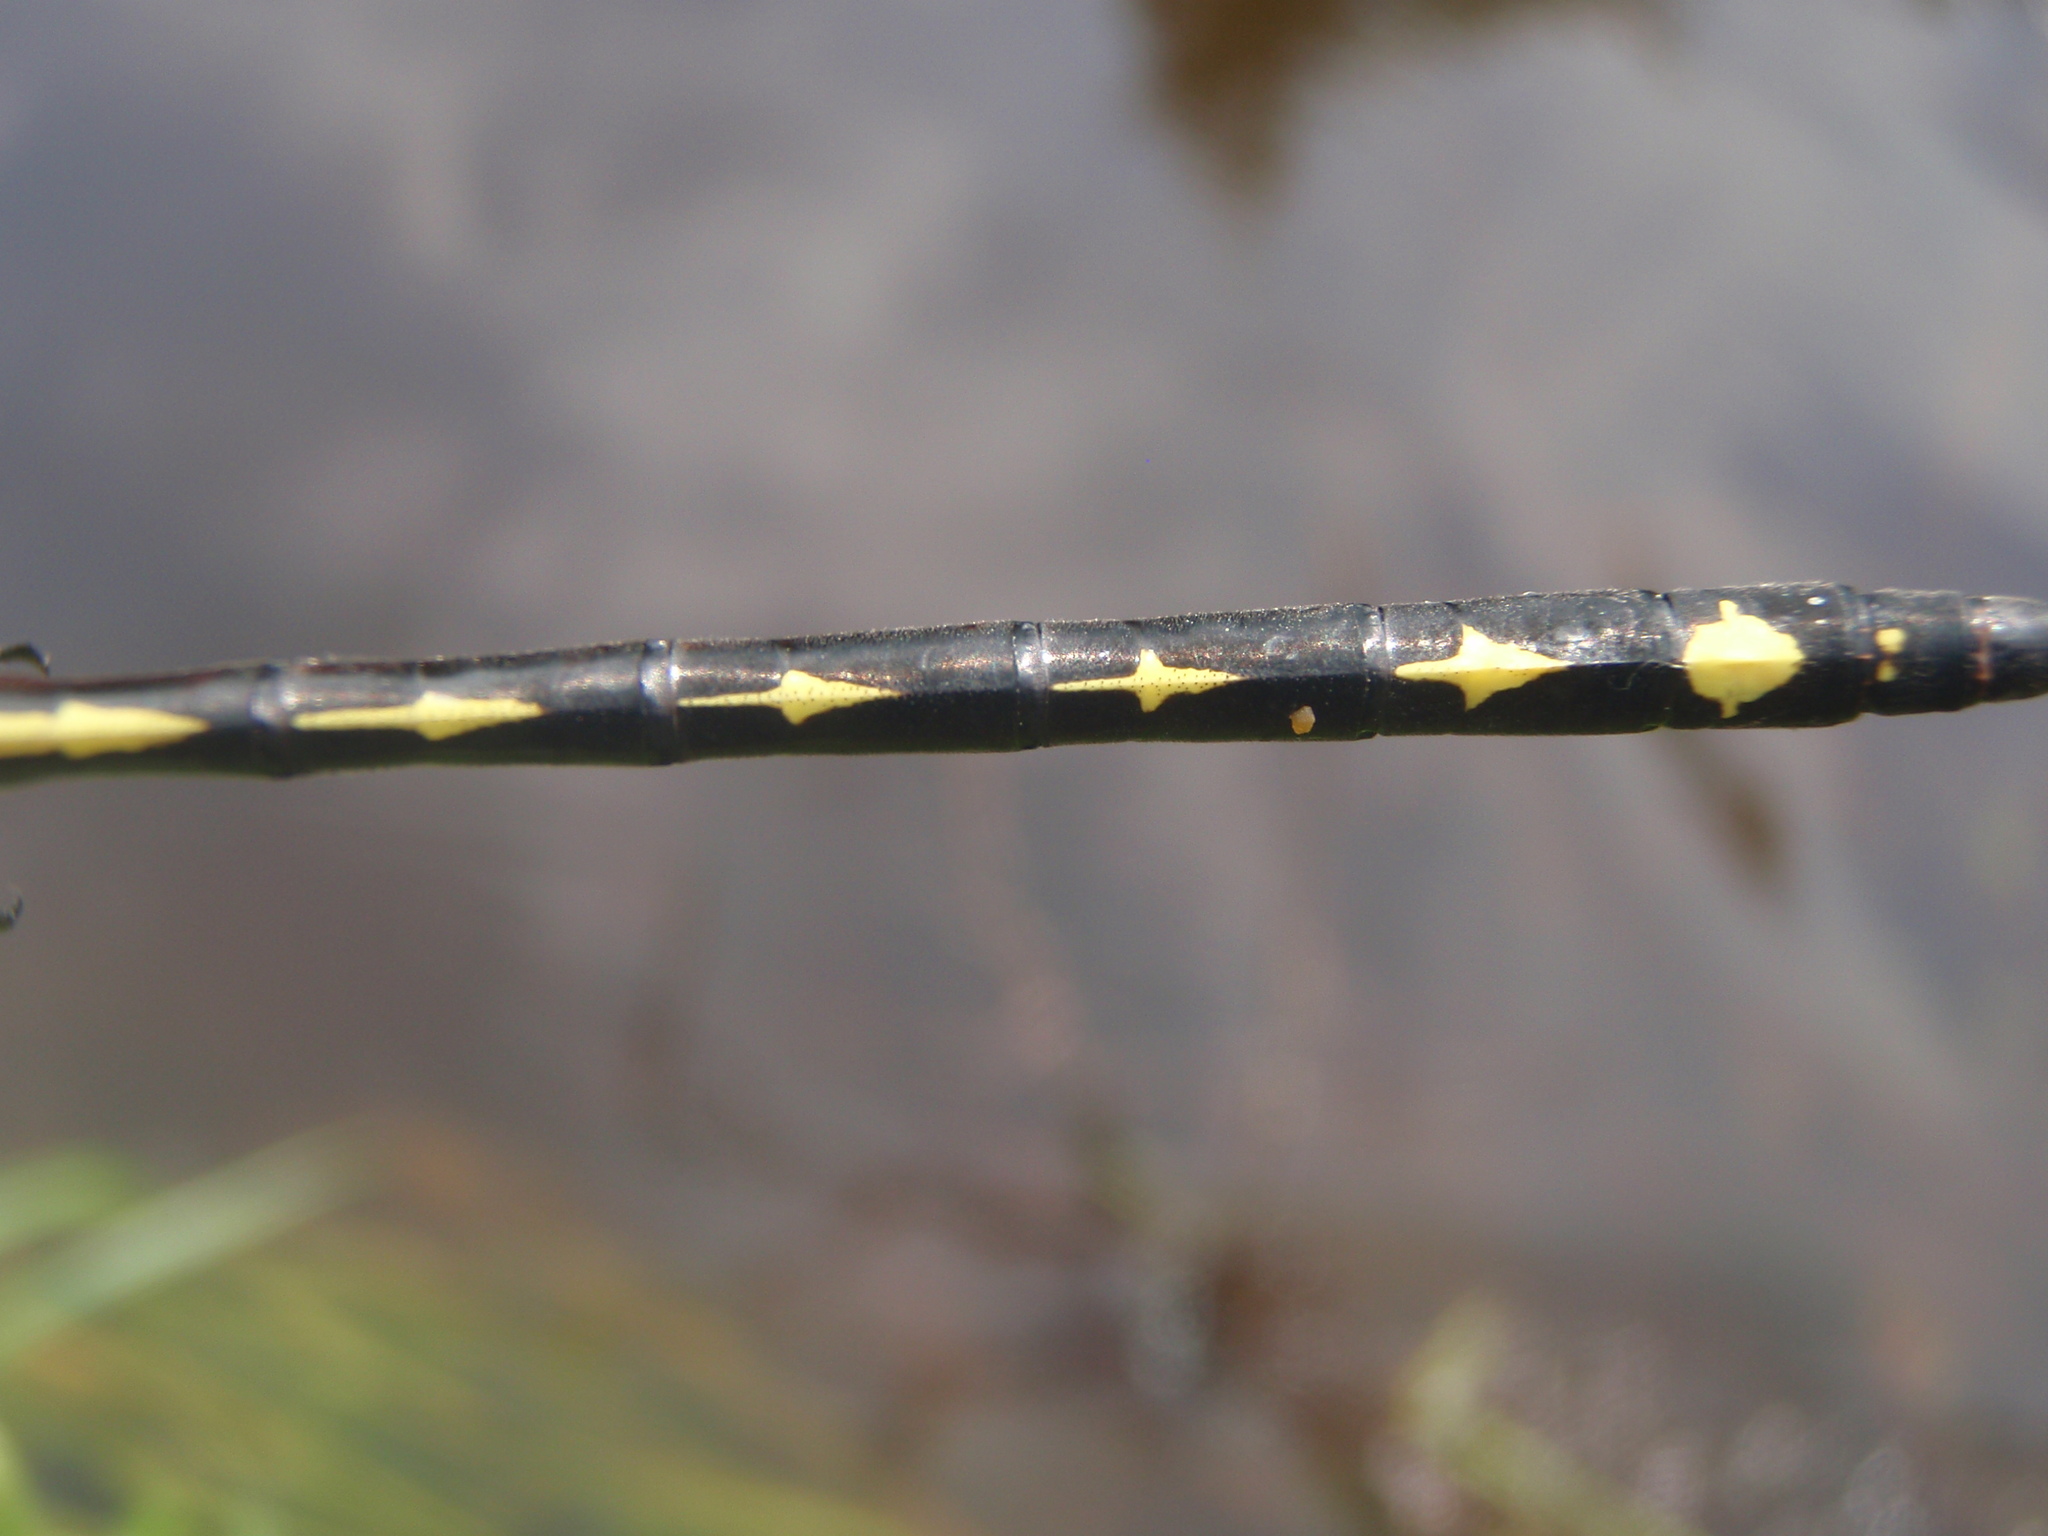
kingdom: Animalia
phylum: Arthropoda
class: Insecta
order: Odonata
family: Cordulegastridae
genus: Cordulegaster
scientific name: Cordulegaster obliqua
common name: Arrowhead spiketail
